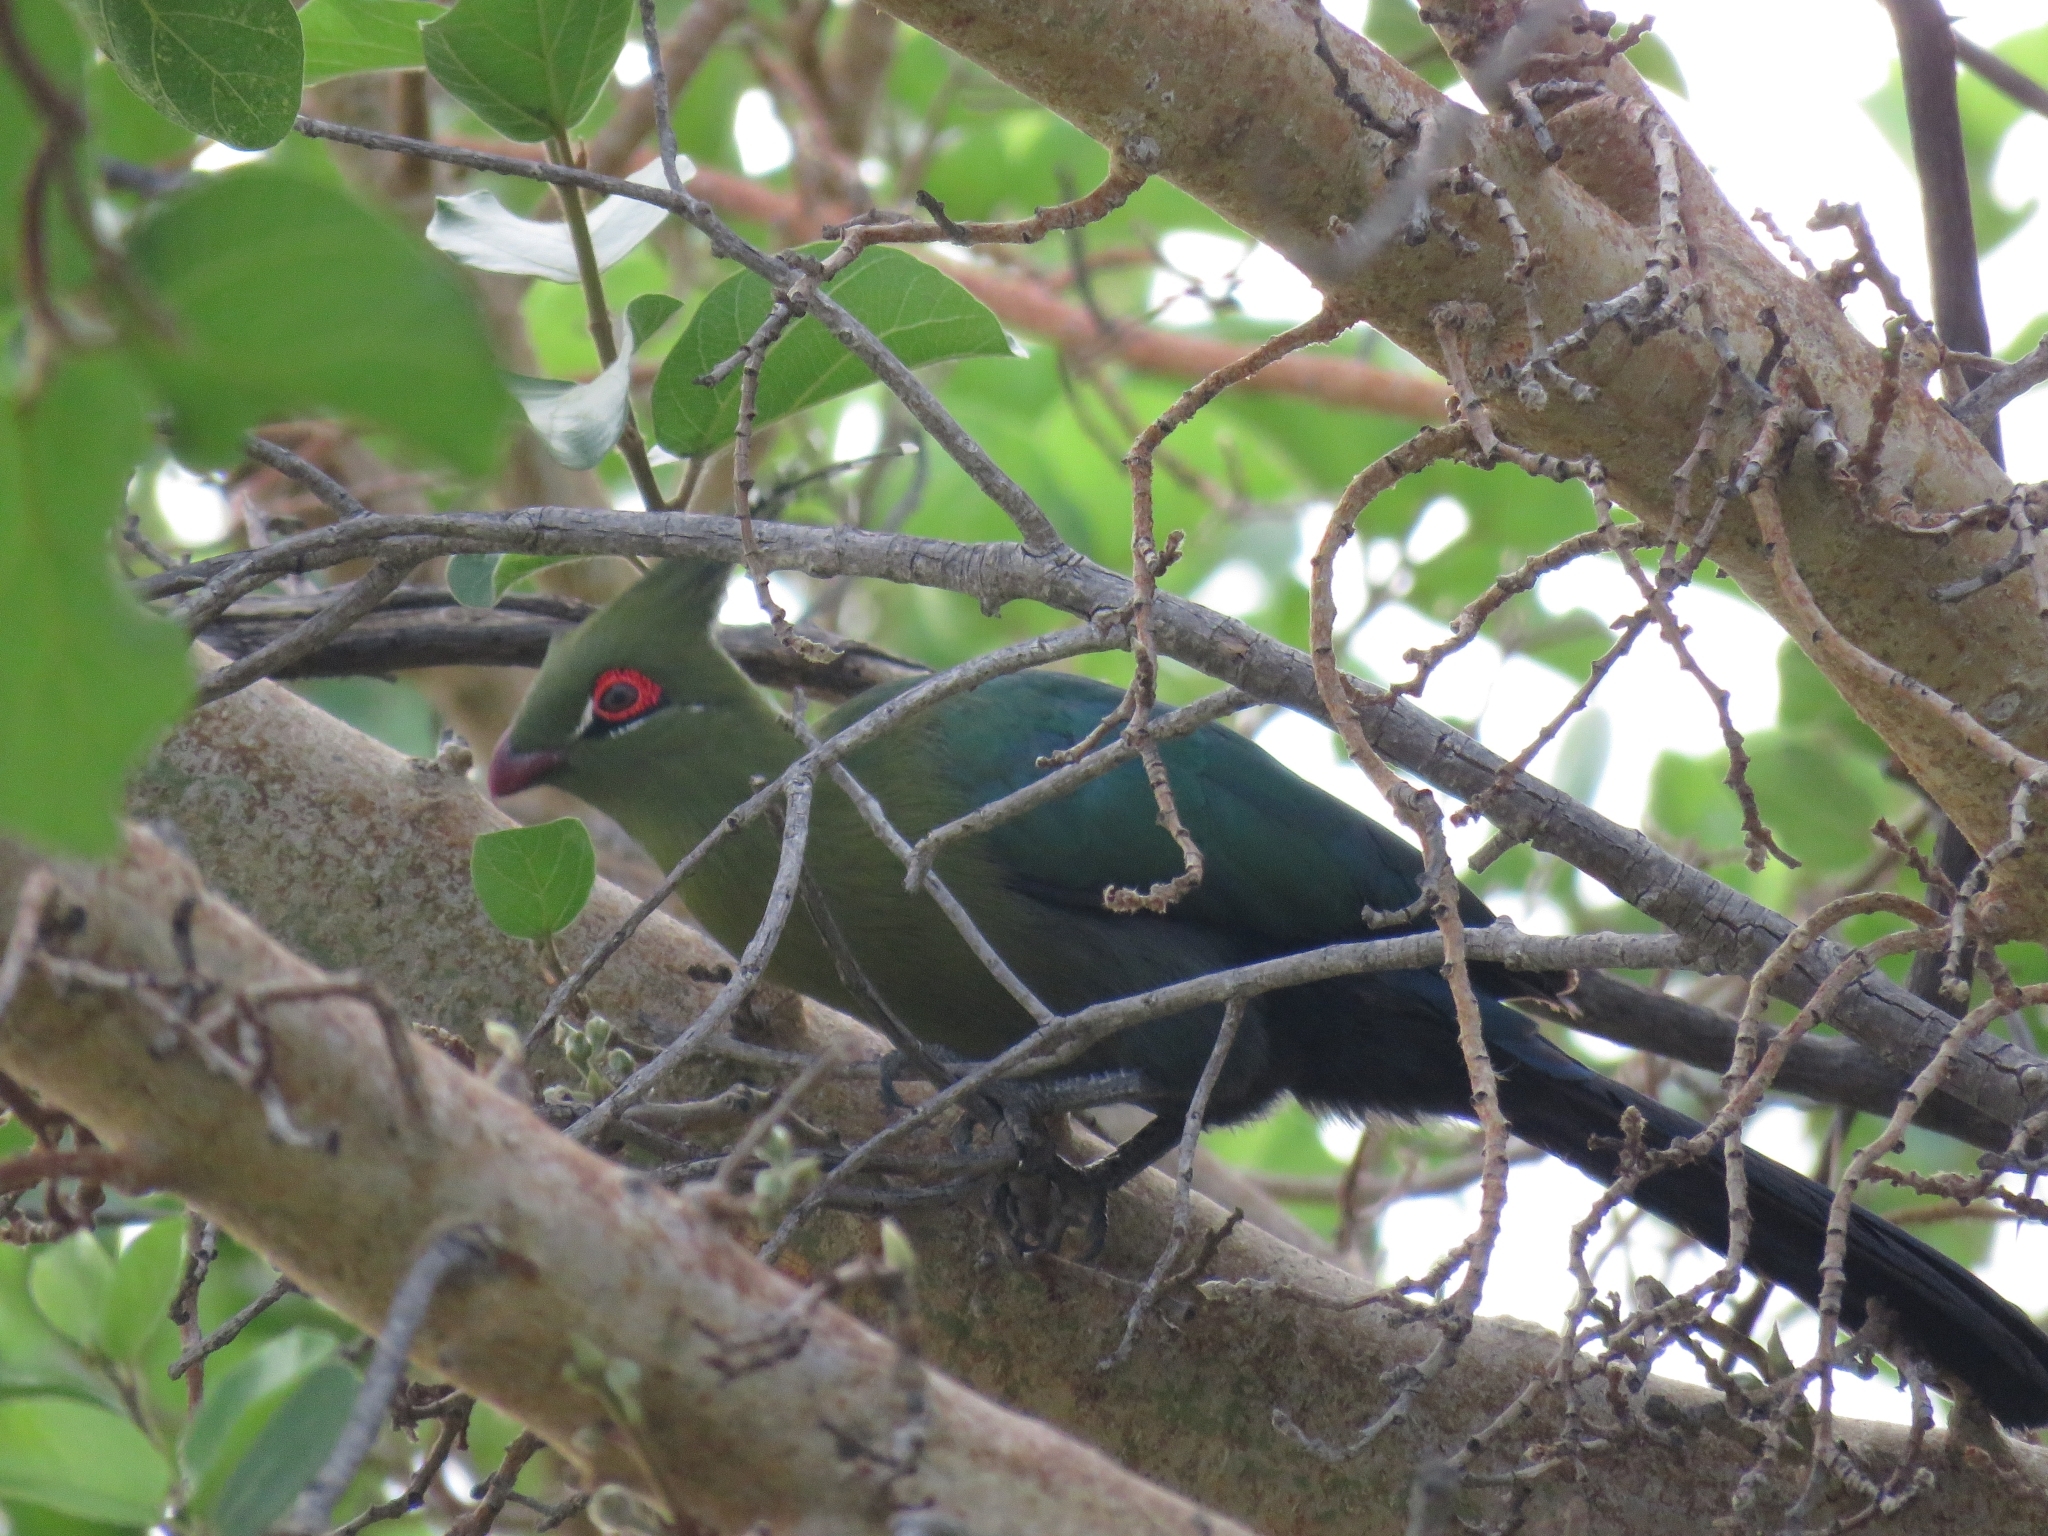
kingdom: Animalia
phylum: Chordata
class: Aves
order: Musophagiformes
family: Musophagidae
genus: Tauraco
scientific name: Tauraco schalowi
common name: Schalow's turaco
